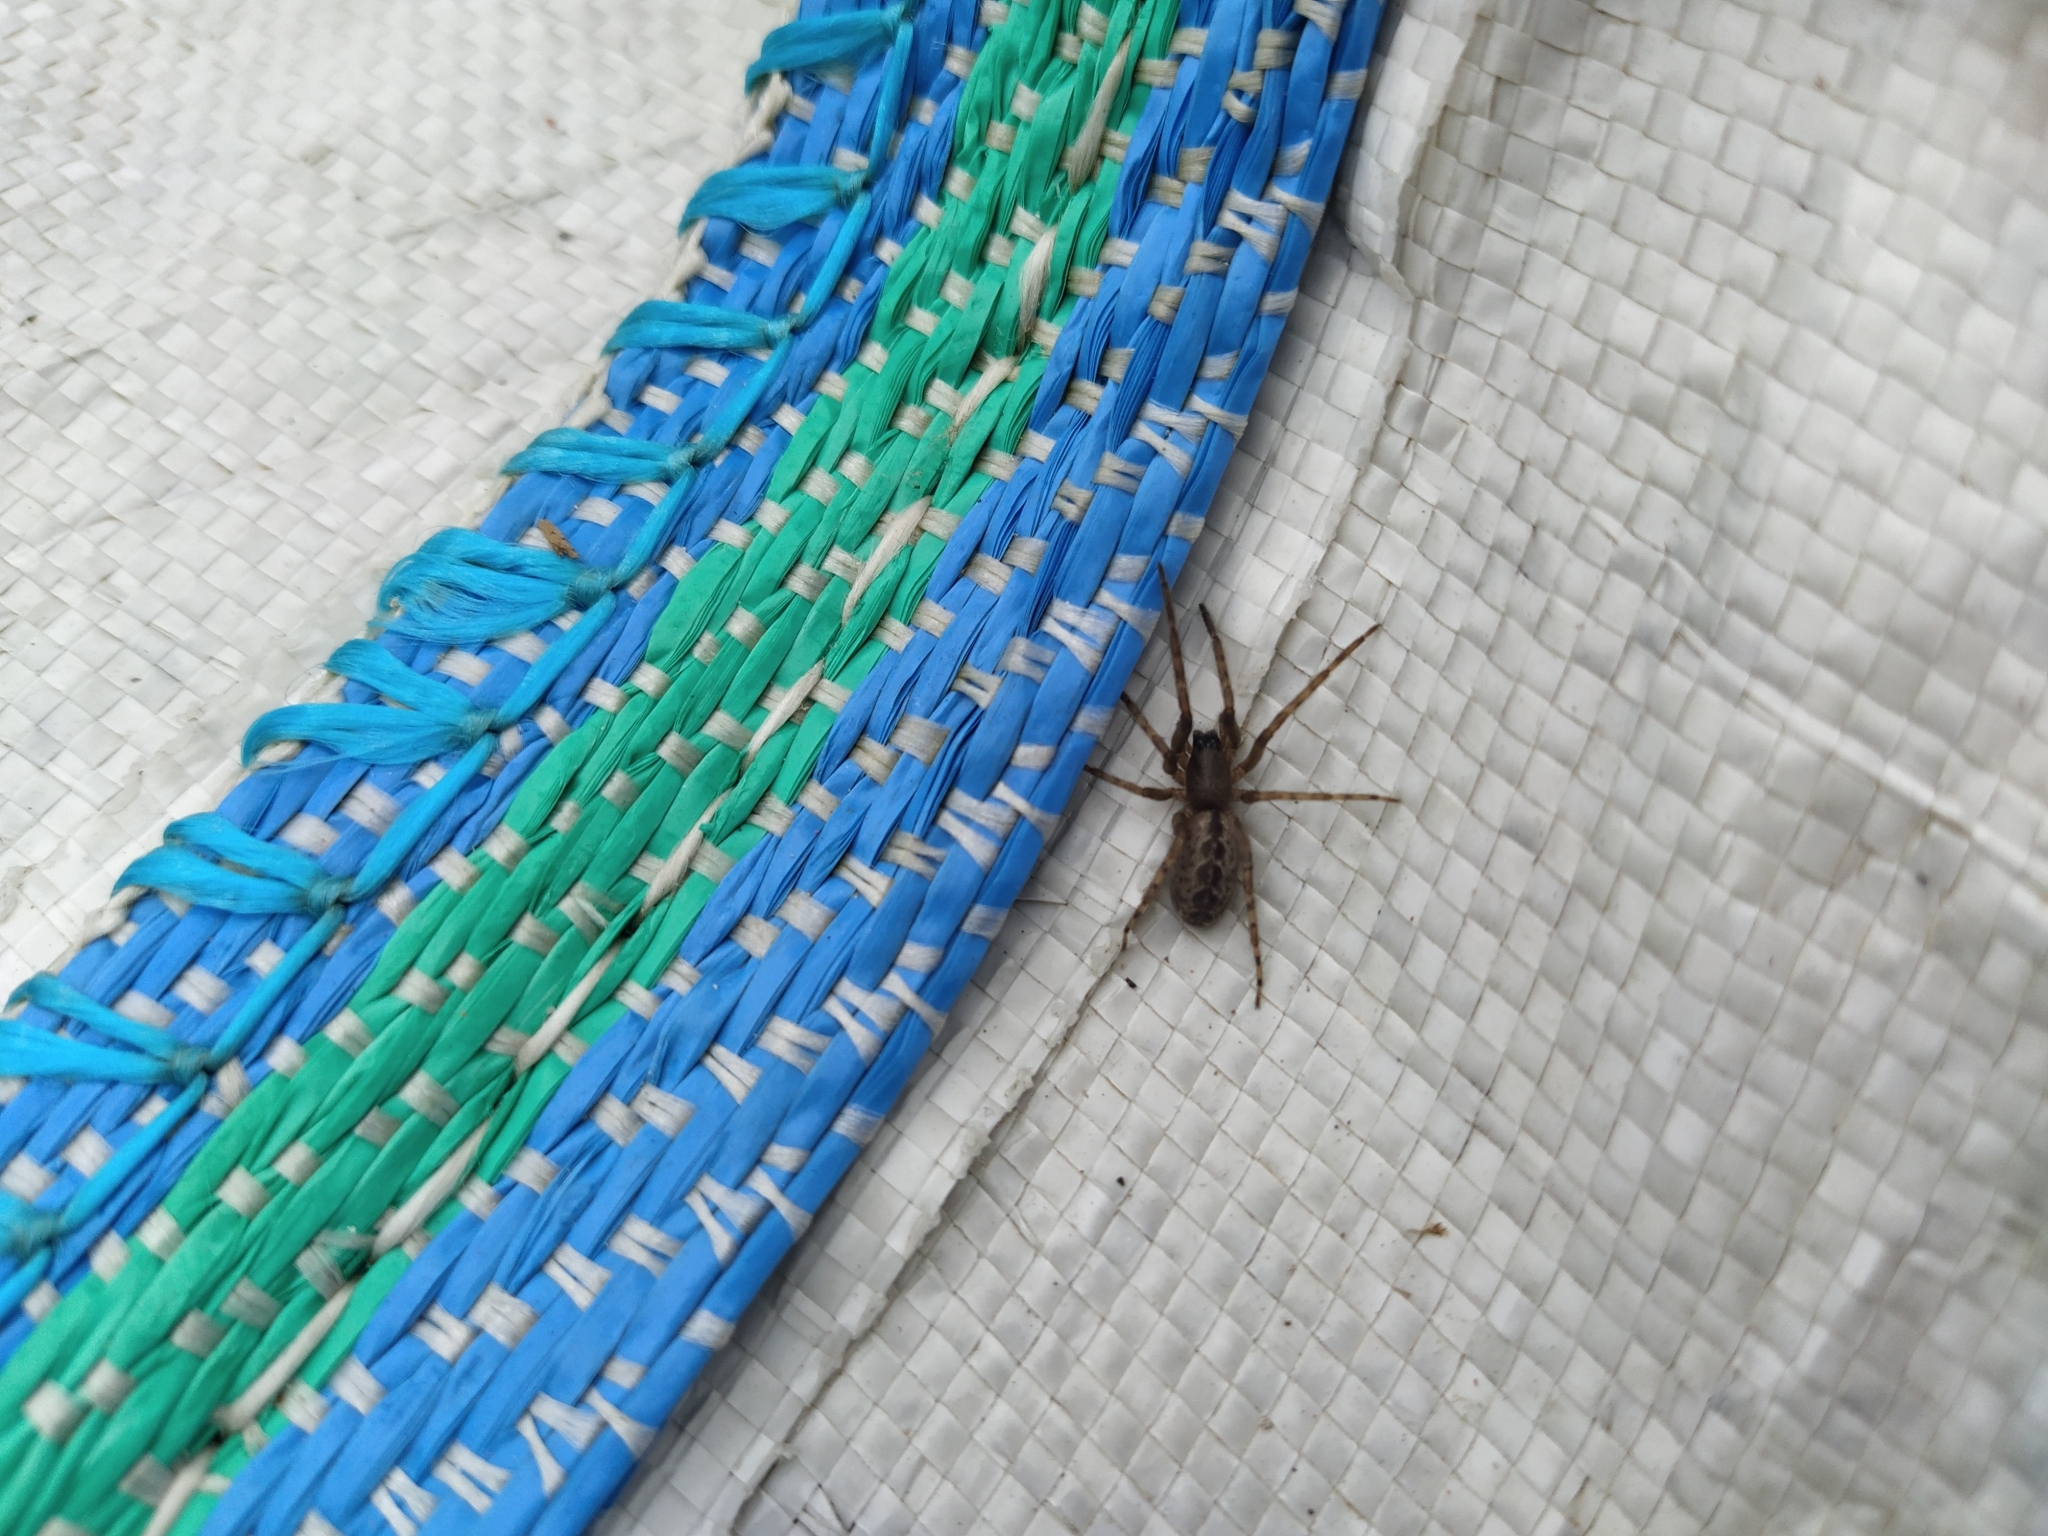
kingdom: Animalia
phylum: Arthropoda
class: Arachnida
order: Araneae
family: Segestriidae
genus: Segestria
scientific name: Segestria bavarica
